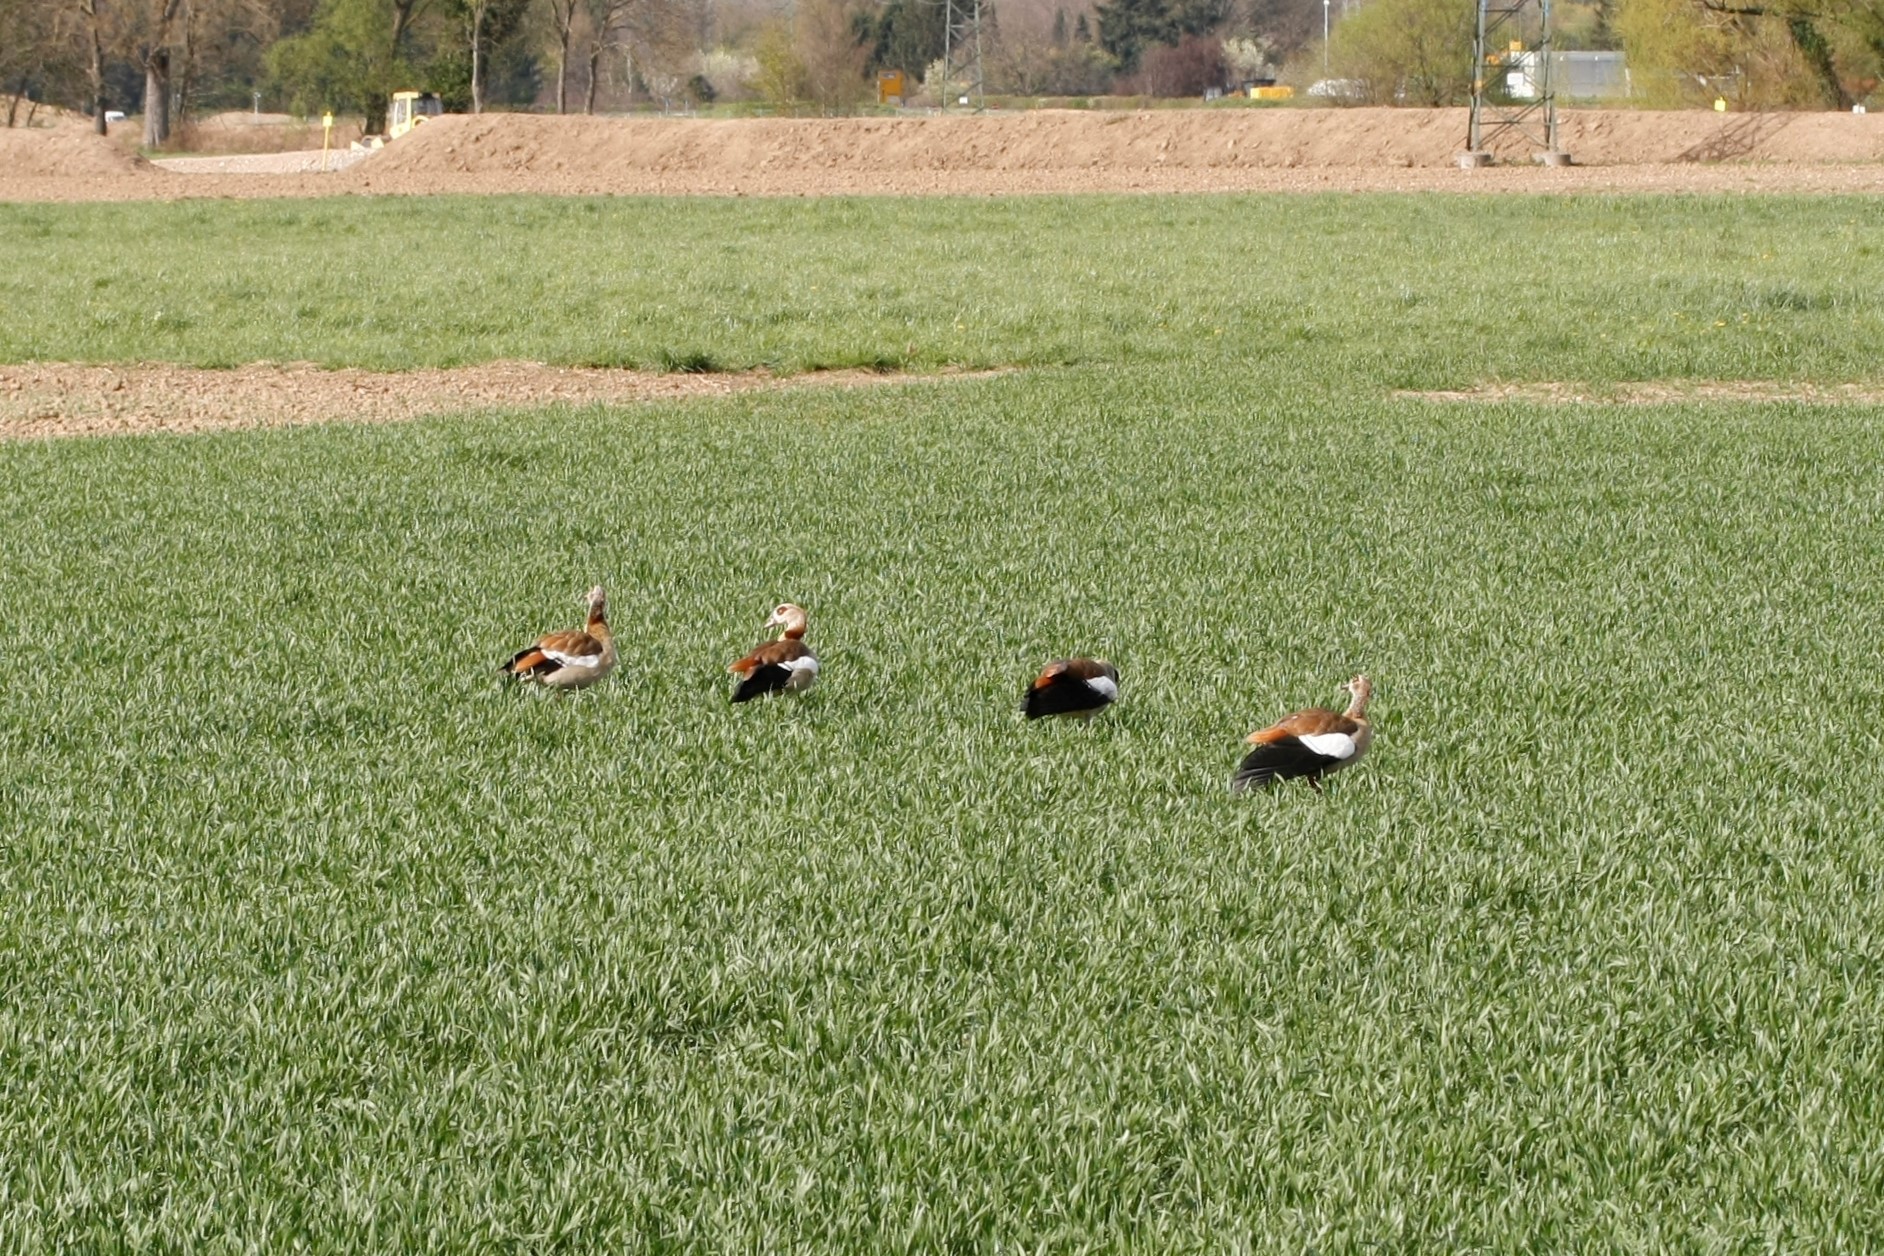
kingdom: Animalia
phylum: Chordata
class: Aves
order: Anseriformes
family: Anatidae
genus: Alopochen
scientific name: Alopochen aegyptiaca
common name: Egyptian goose
